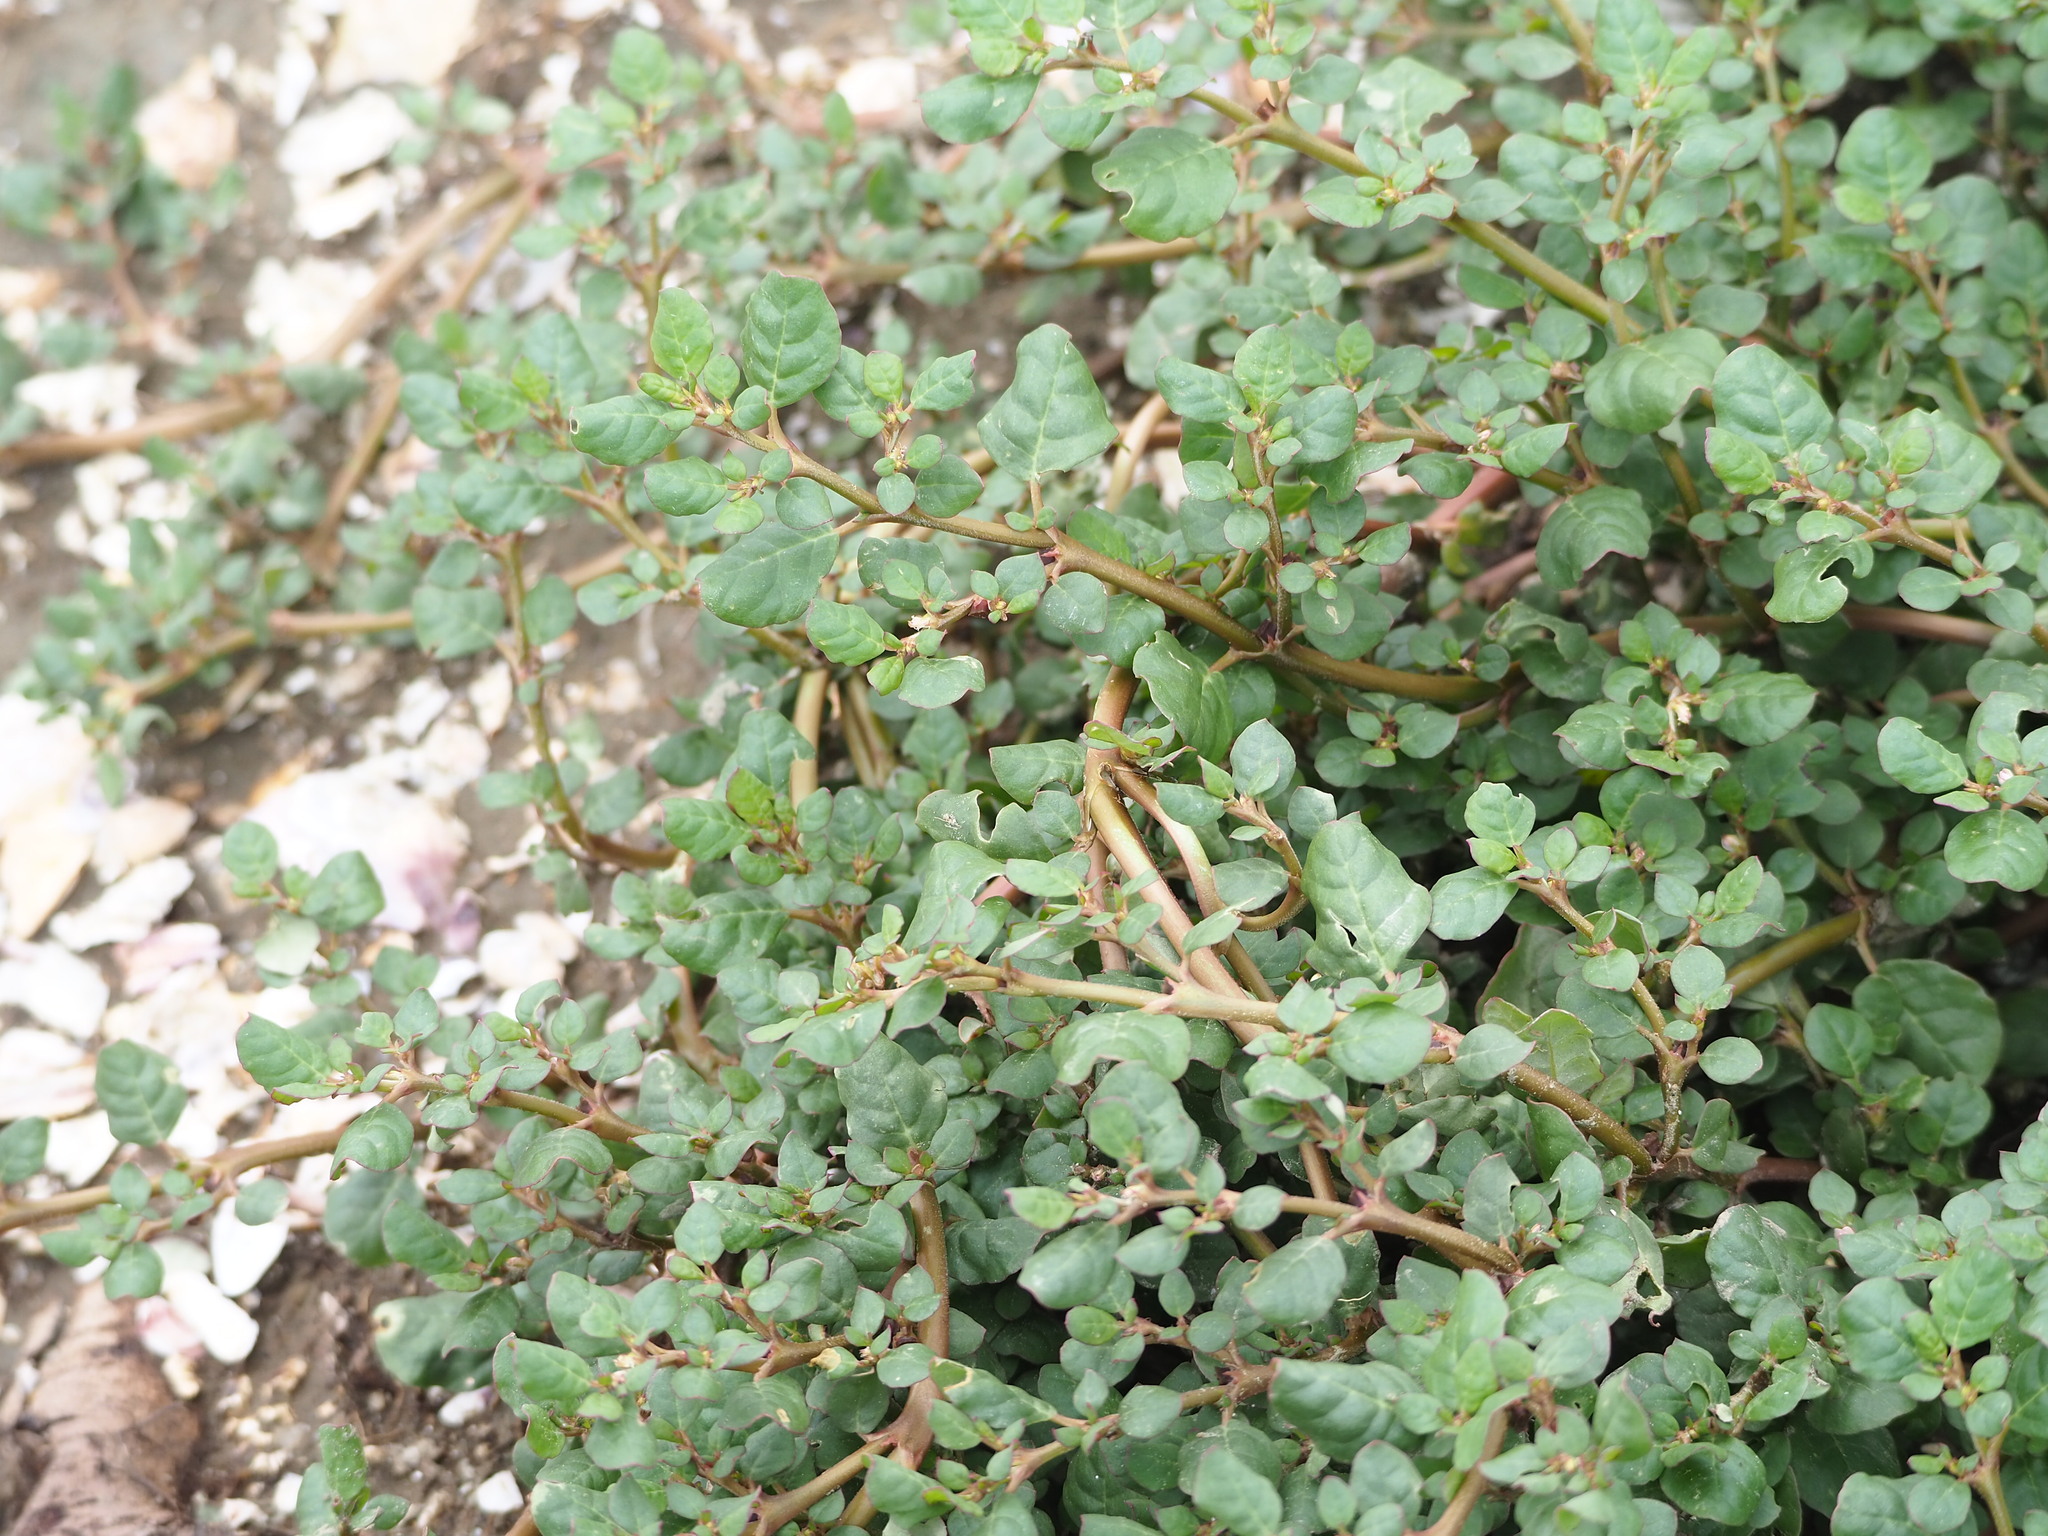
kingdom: Plantae
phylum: Tracheophyta
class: Magnoliopsida
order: Caryophyllales
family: Aizoaceae
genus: Trianthema
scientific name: Trianthema portulacastrum
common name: Desert horsepurslane
